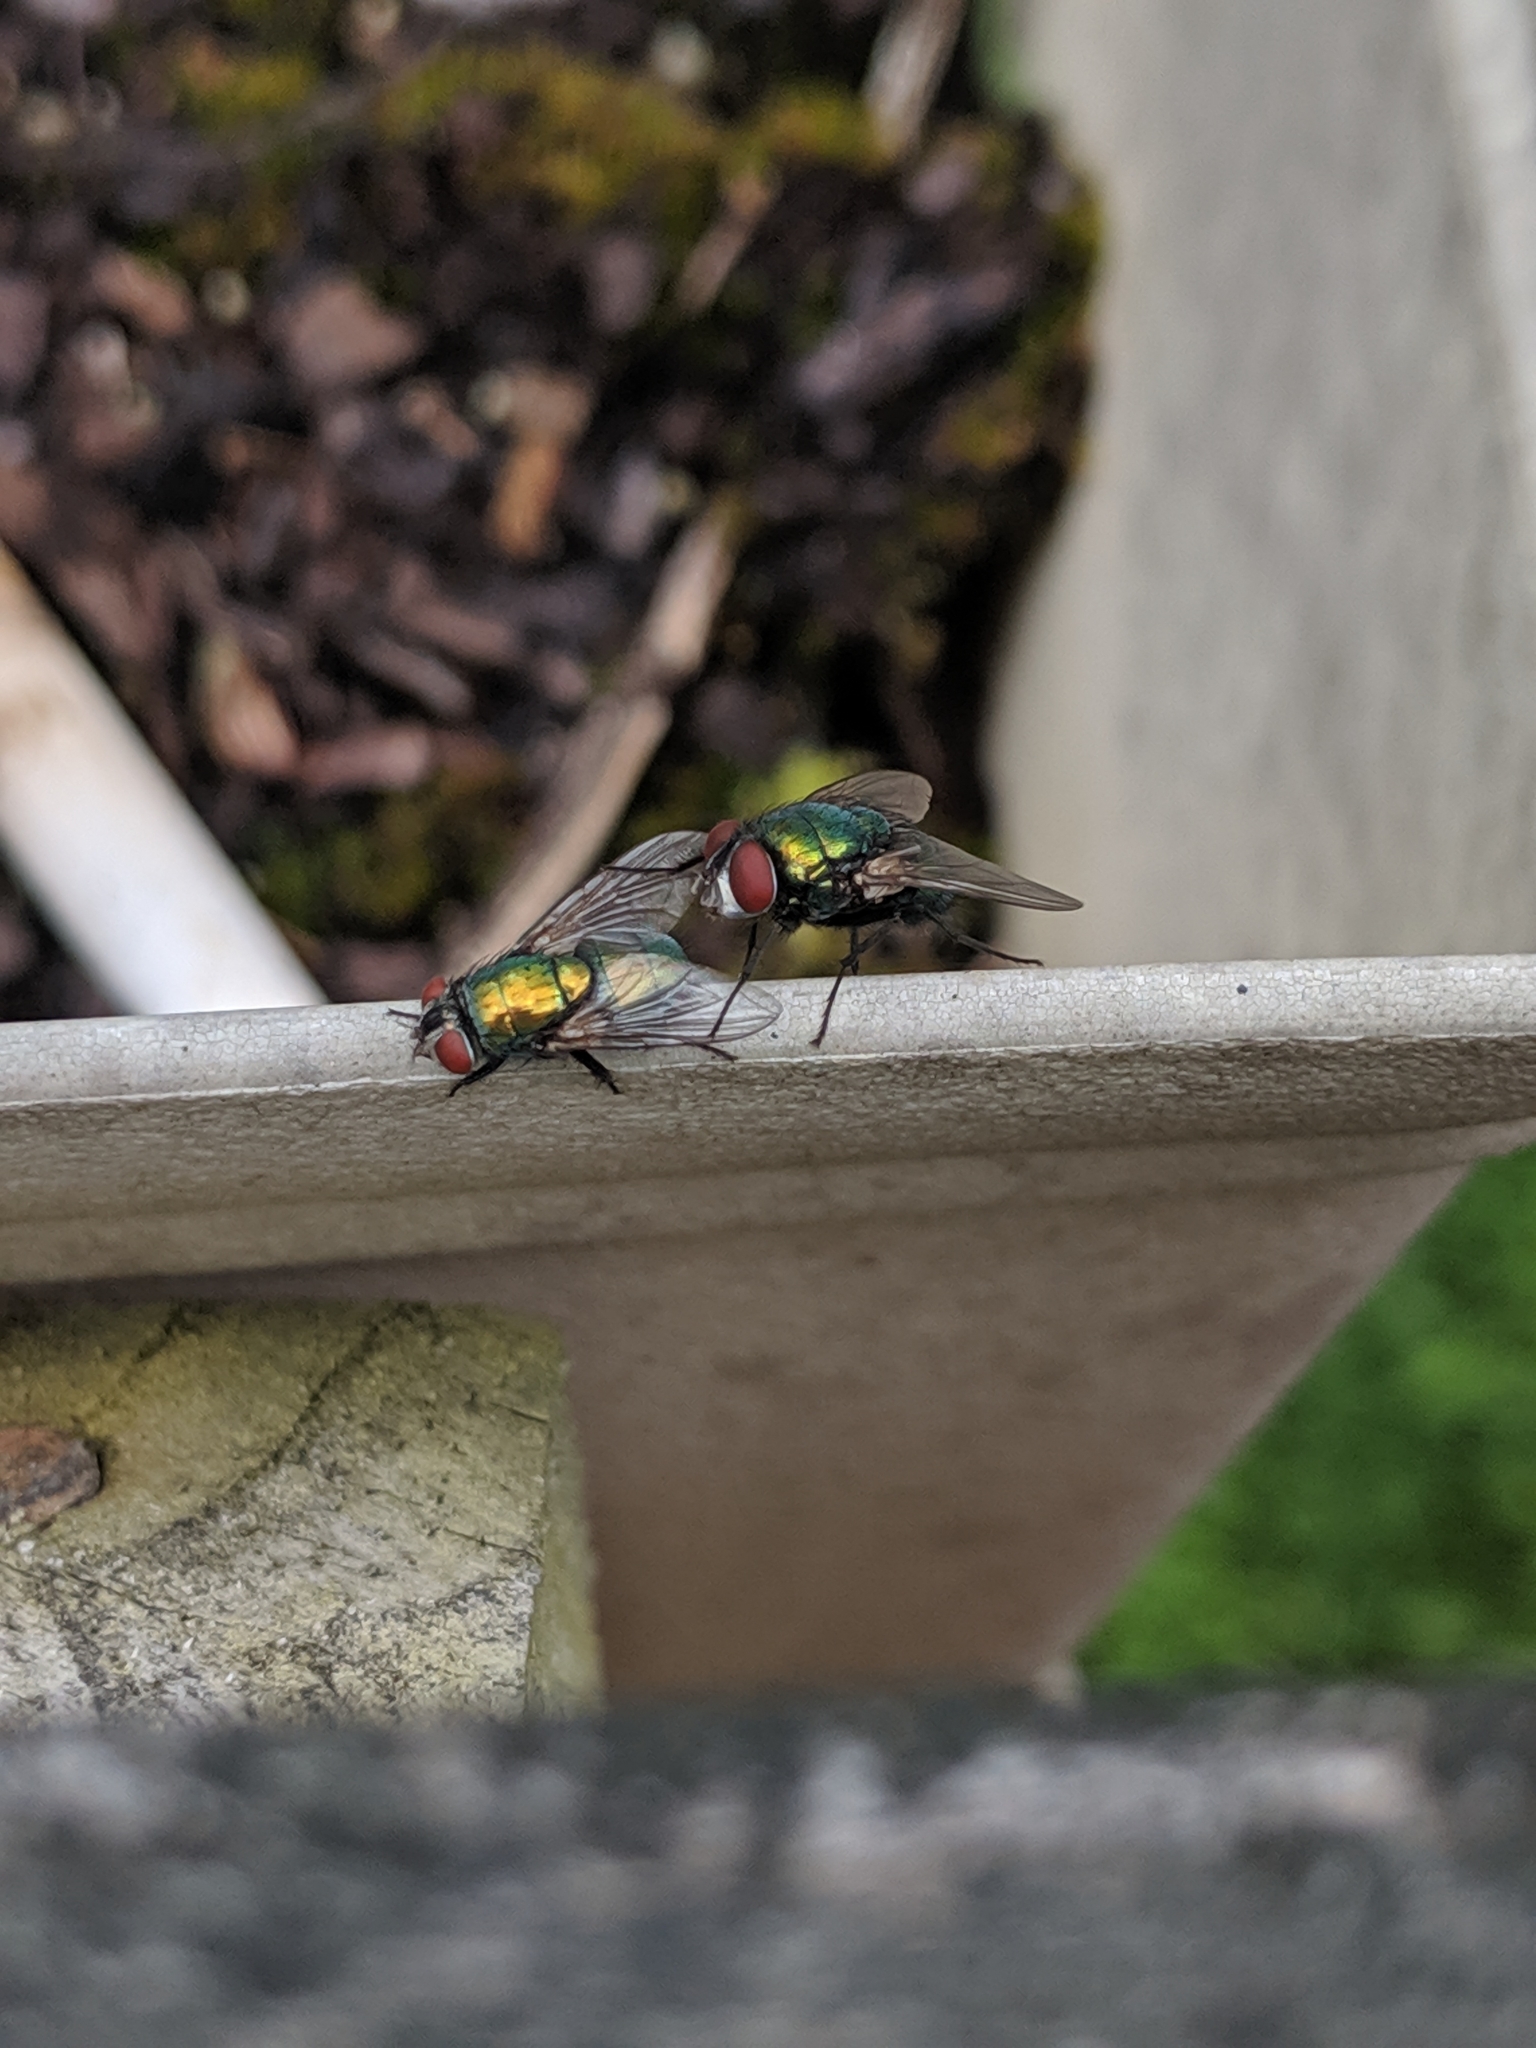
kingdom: Animalia
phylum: Arthropoda
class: Insecta
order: Diptera
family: Calliphoridae
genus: Lucilia
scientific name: Lucilia sericata
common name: Blow fly
